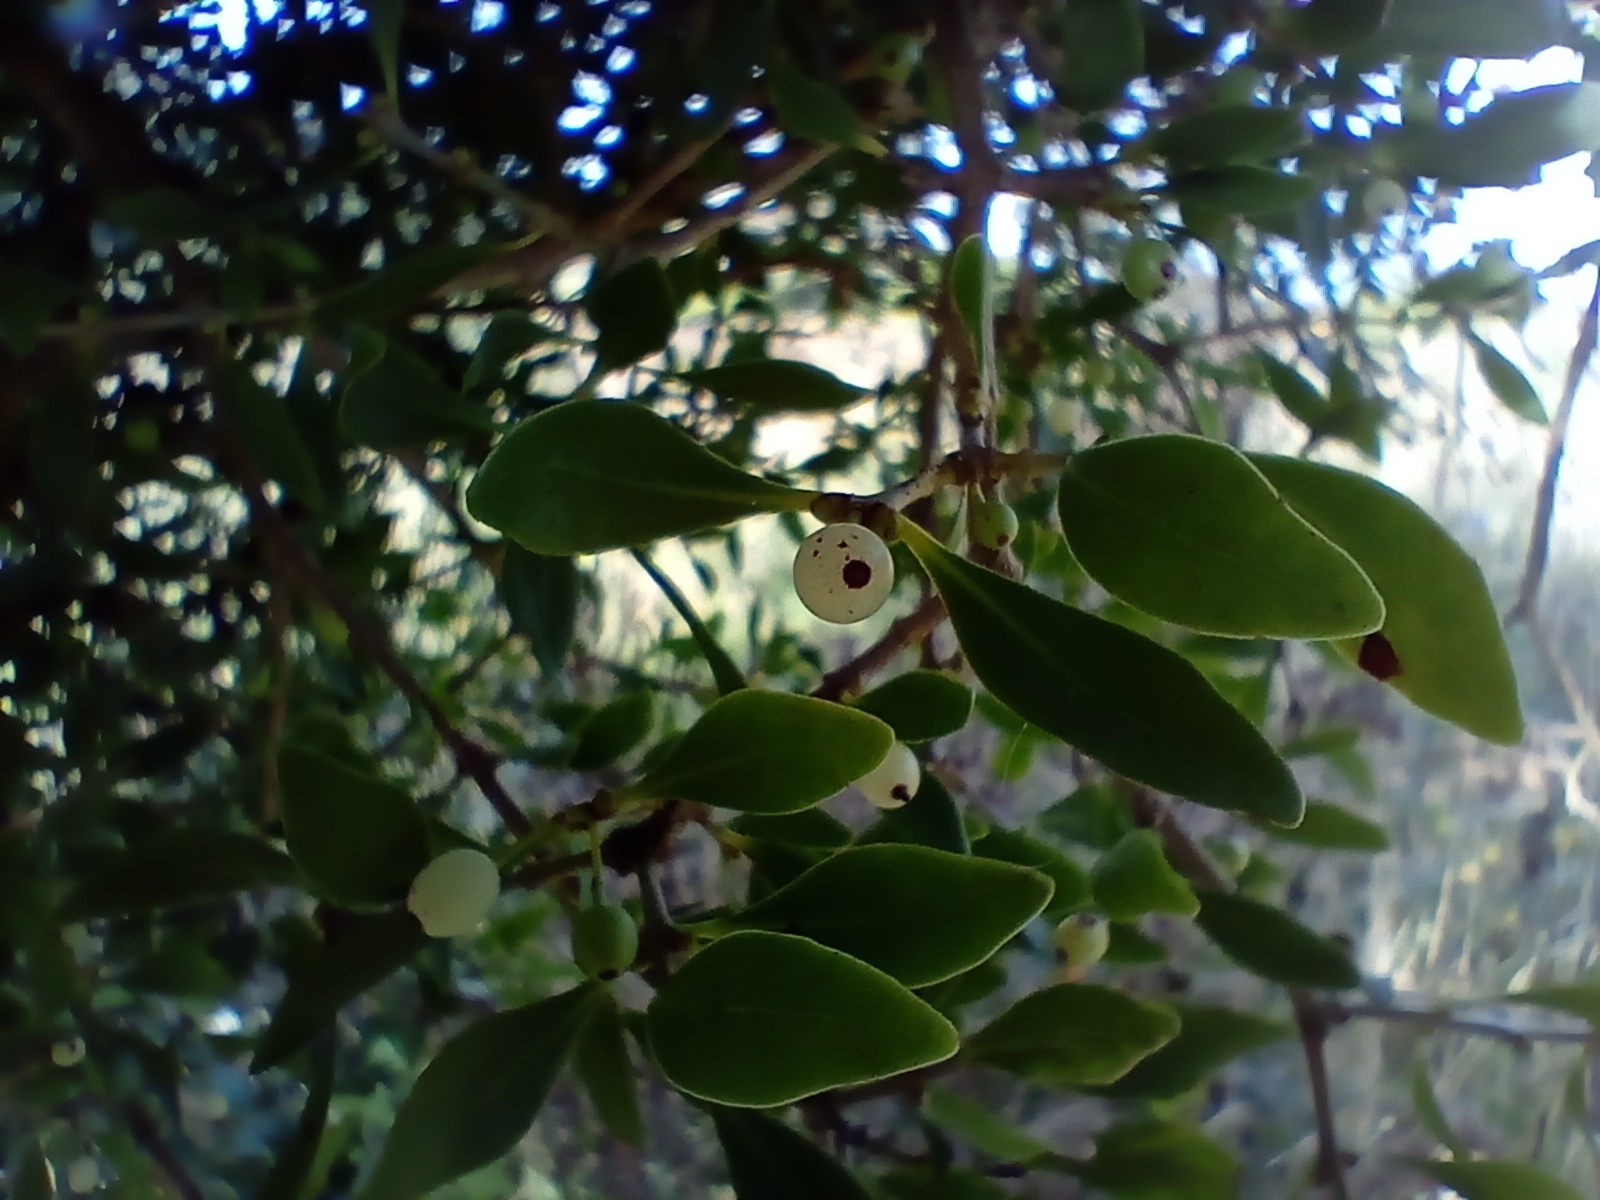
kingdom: Plantae
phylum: Tracheophyta
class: Magnoliopsida
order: Santalales
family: Loranthaceae
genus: Tupeia
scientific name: Tupeia antarctica
